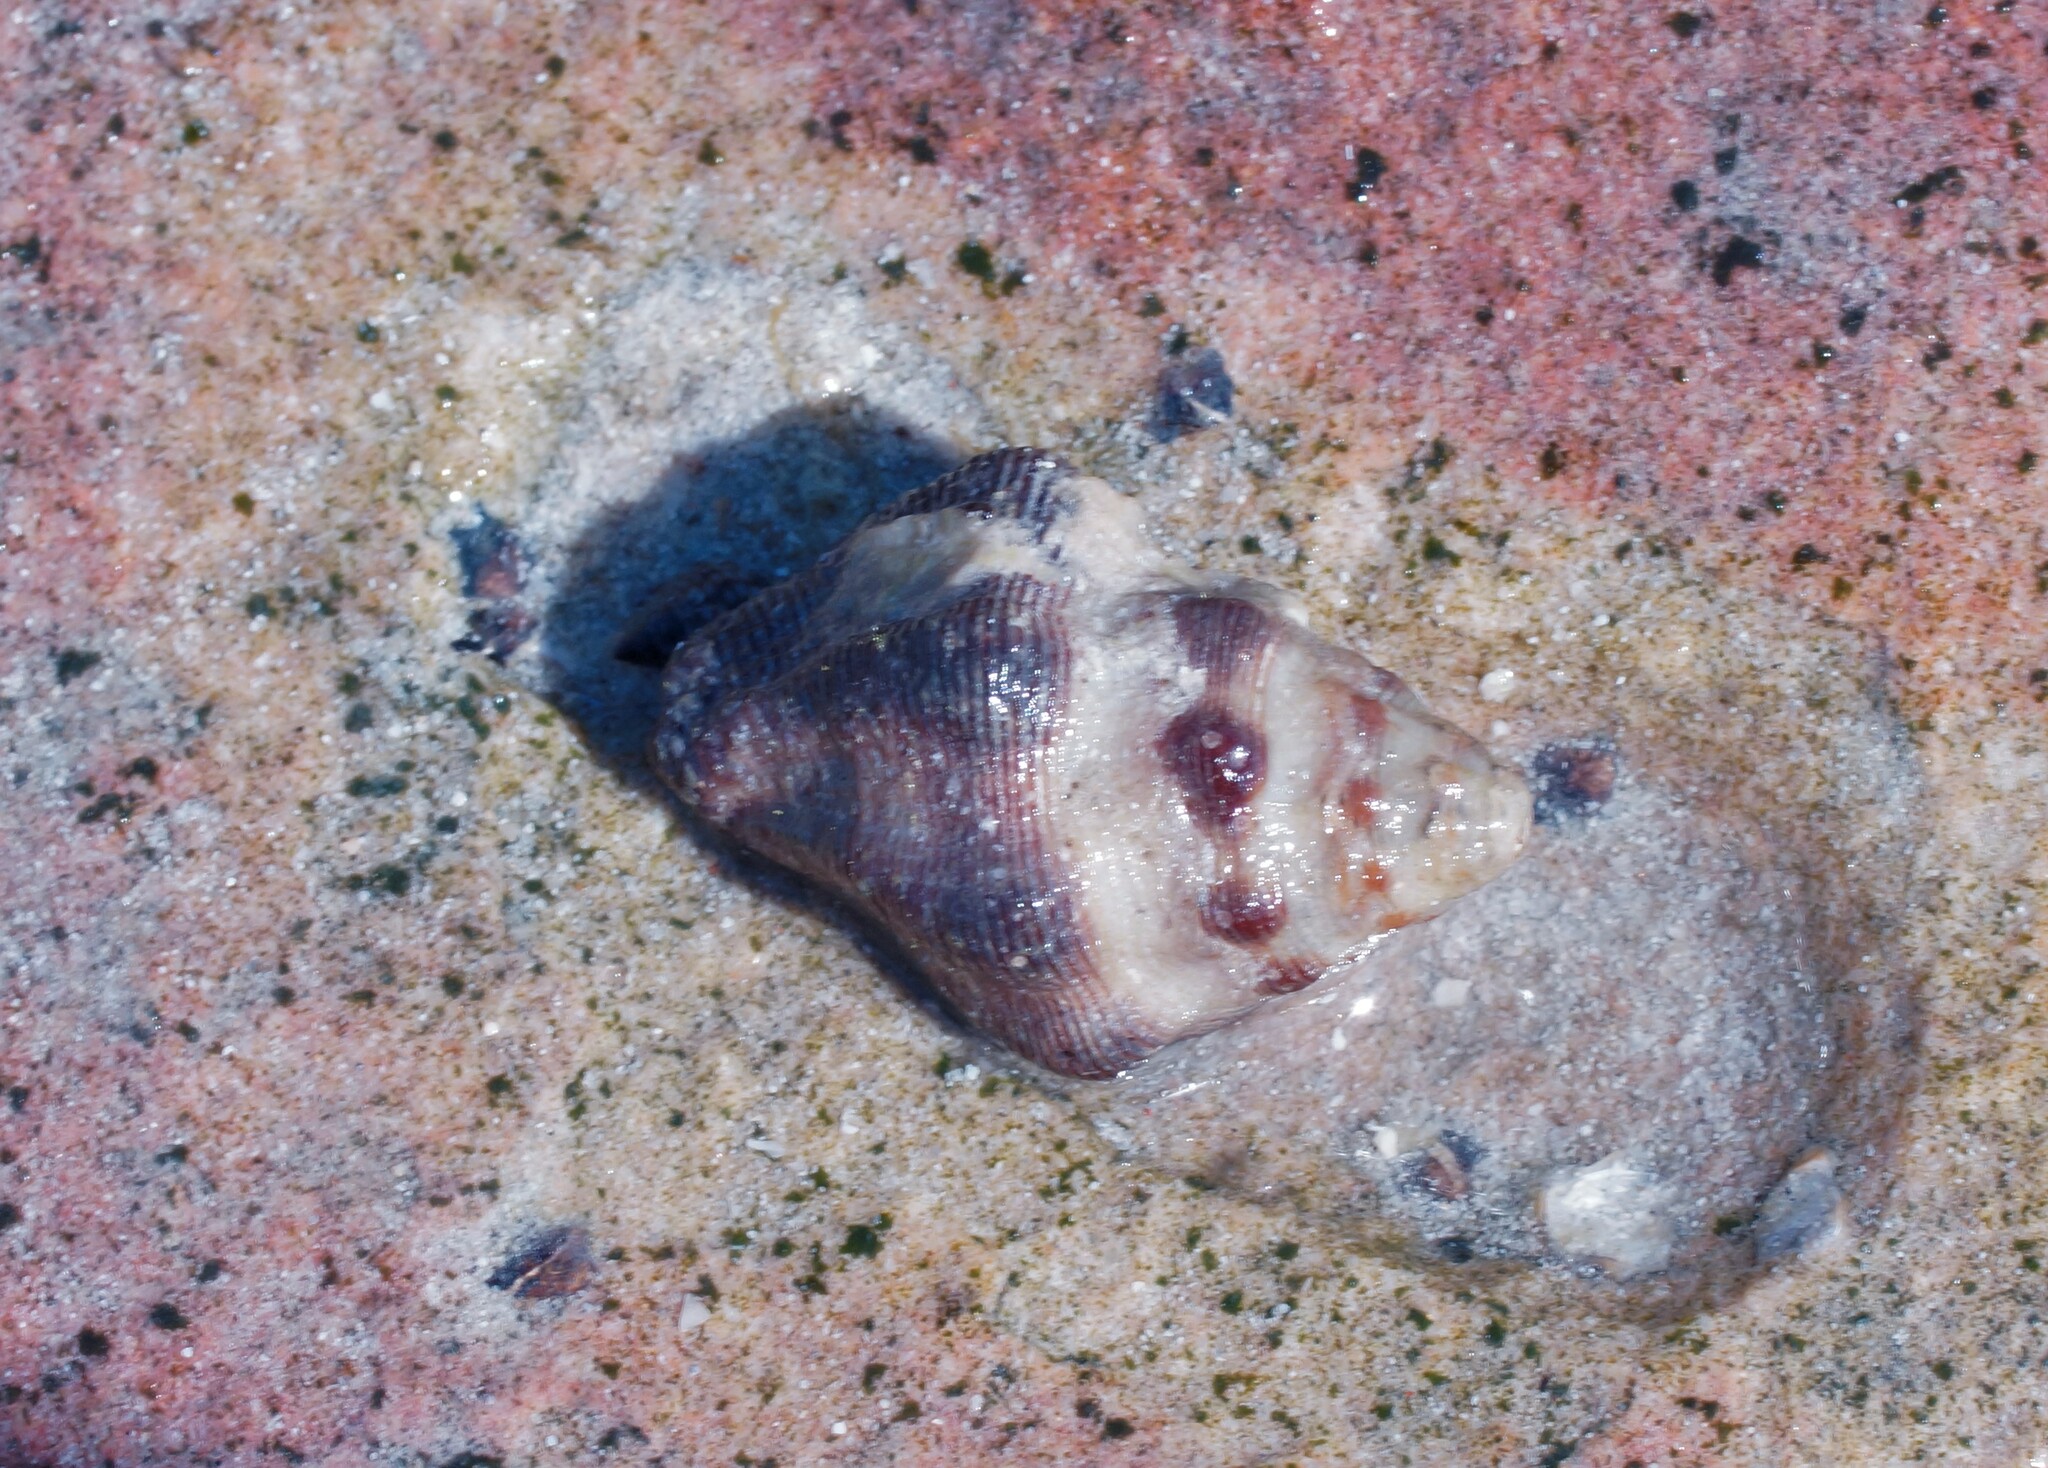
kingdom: Animalia
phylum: Mollusca
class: Gastropoda
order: Neogastropoda
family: Muricidae
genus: Drupella
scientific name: Drupella margariticola
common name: Shouldered castor bean
